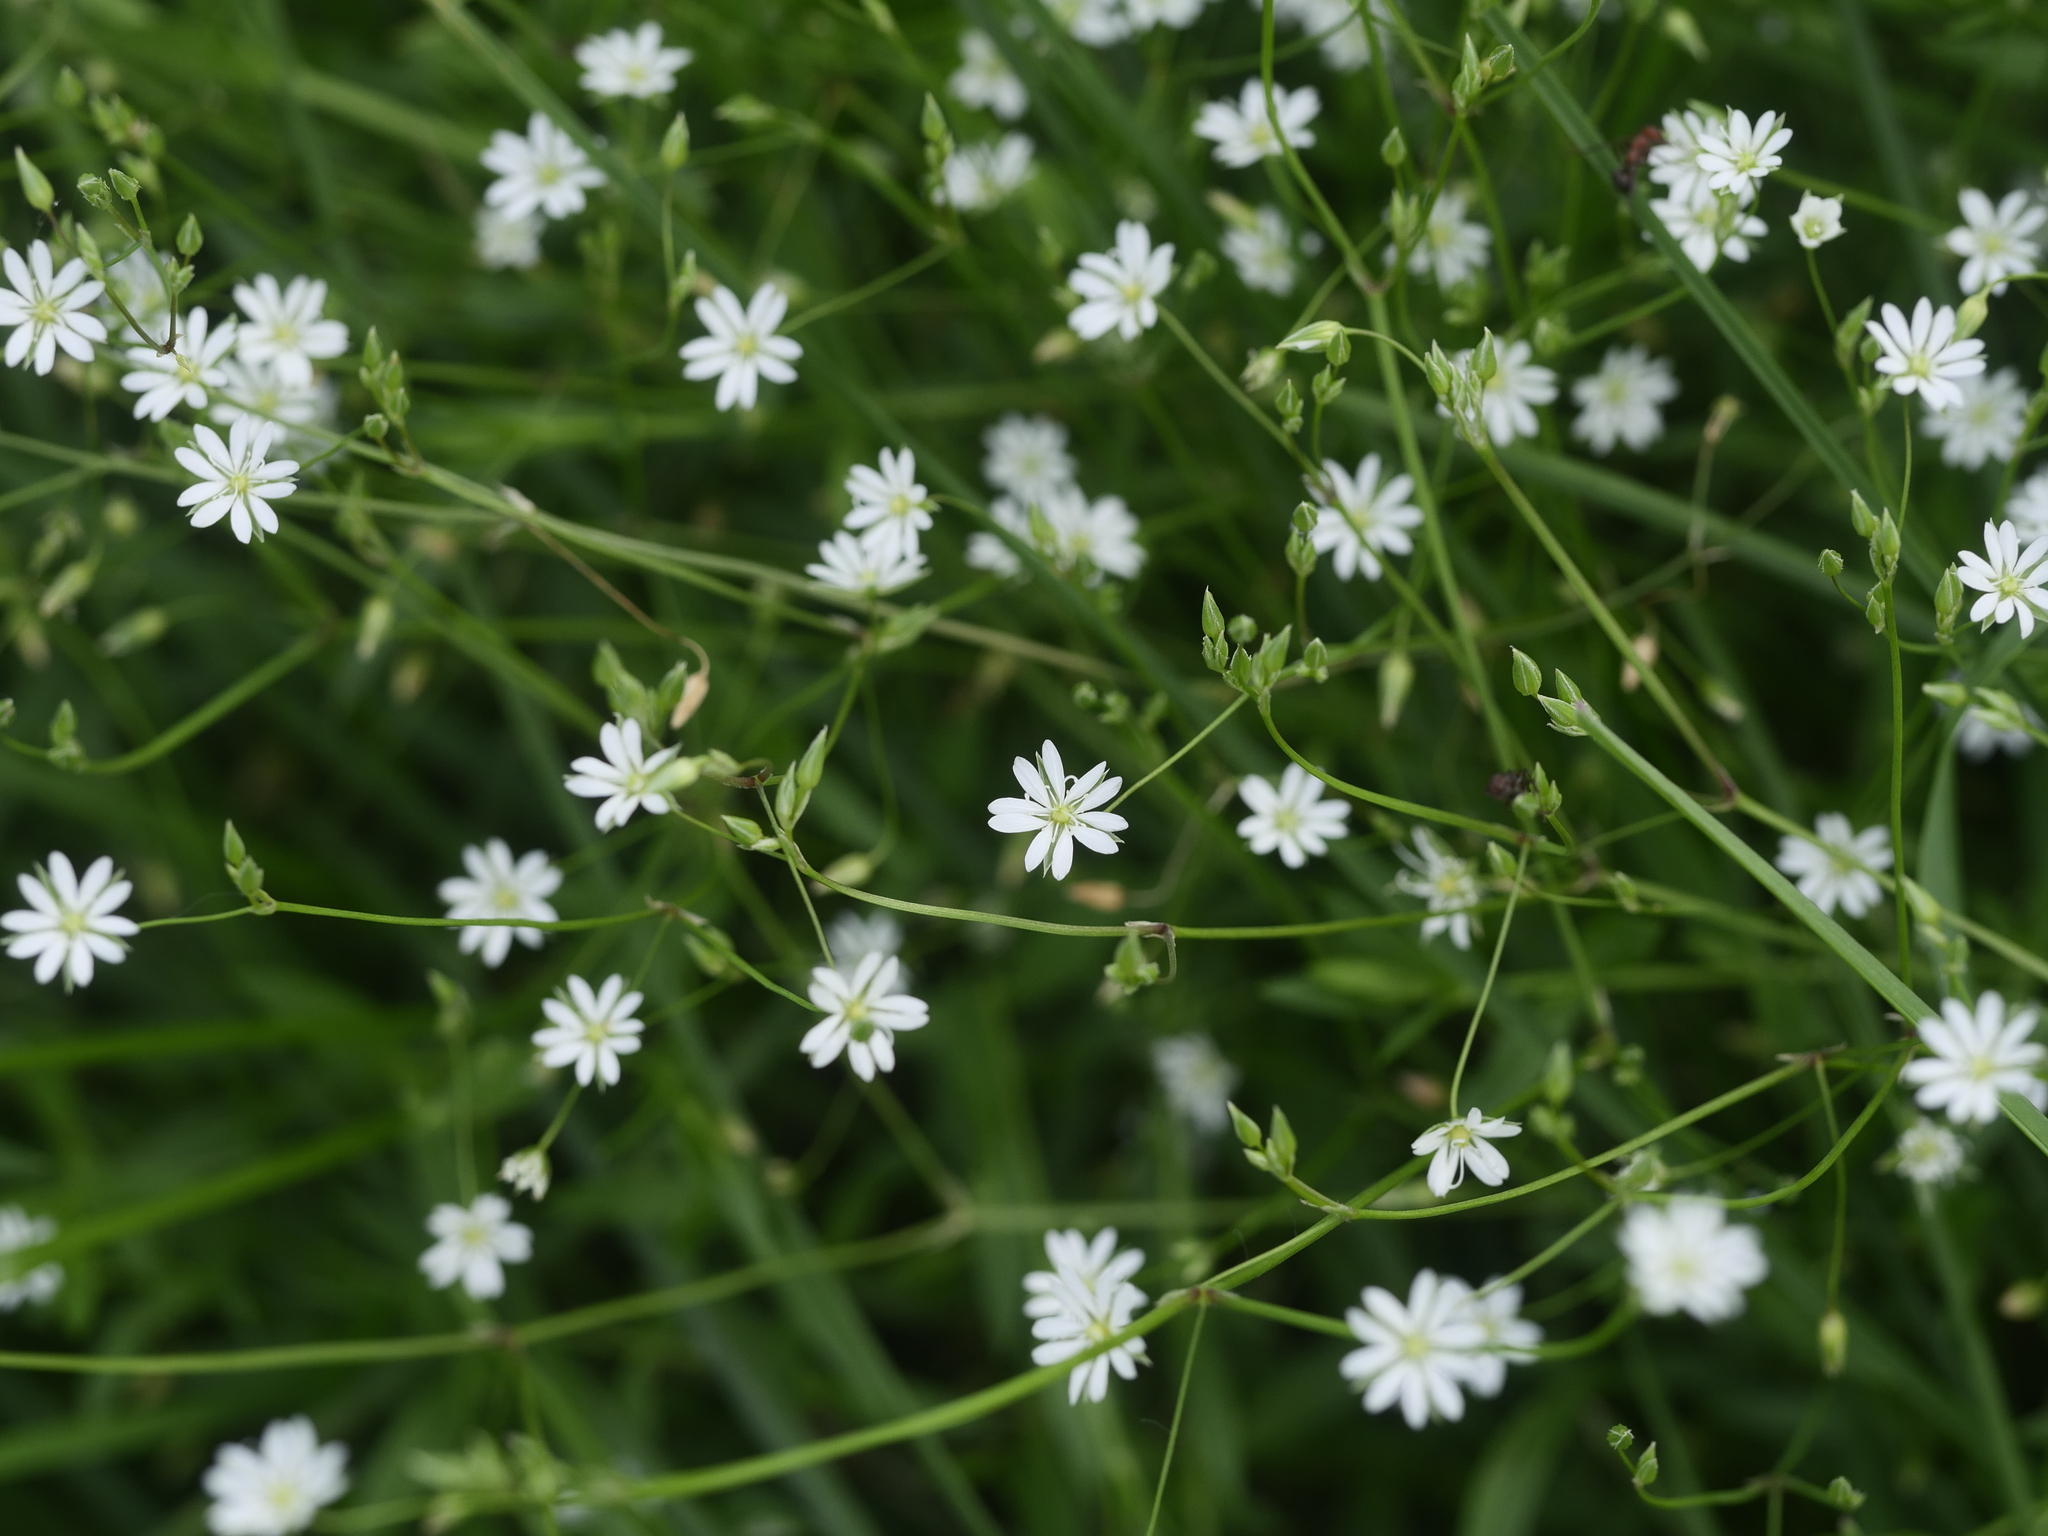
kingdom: Plantae
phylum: Tracheophyta
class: Magnoliopsida
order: Caryophyllales
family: Caryophyllaceae
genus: Stellaria
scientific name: Stellaria graminea
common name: Grass-like starwort
